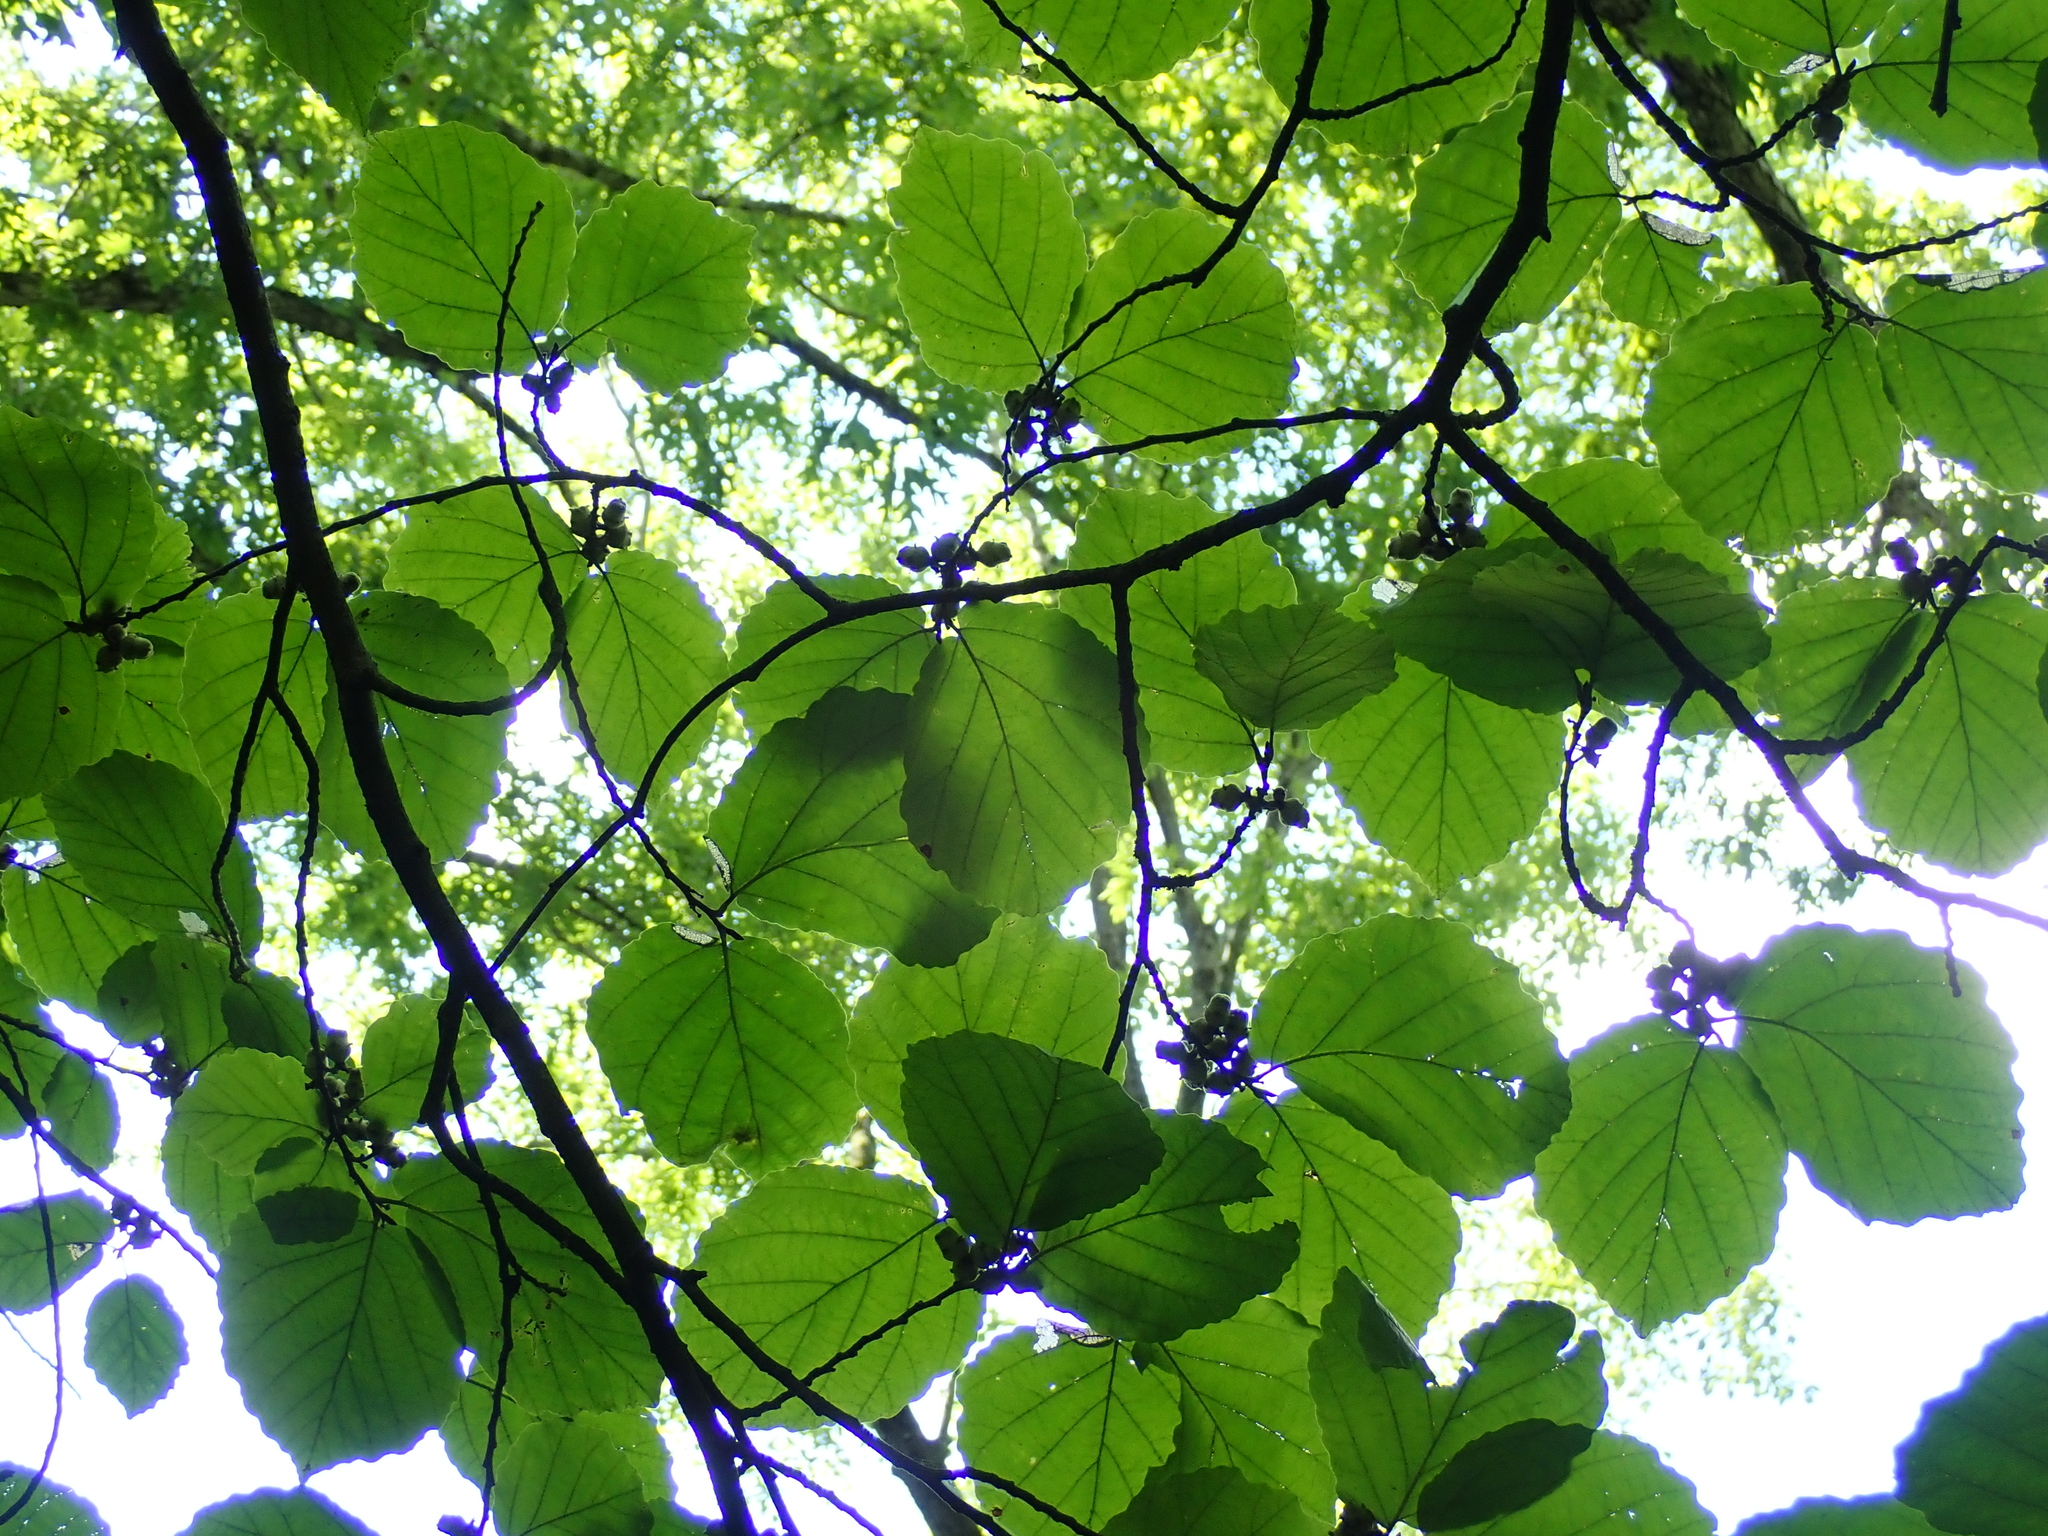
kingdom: Plantae
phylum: Tracheophyta
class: Magnoliopsida
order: Saxifragales
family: Hamamelidaceae
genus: Hamamelis
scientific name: Hamamelis virginiana
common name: Witch-hazel
